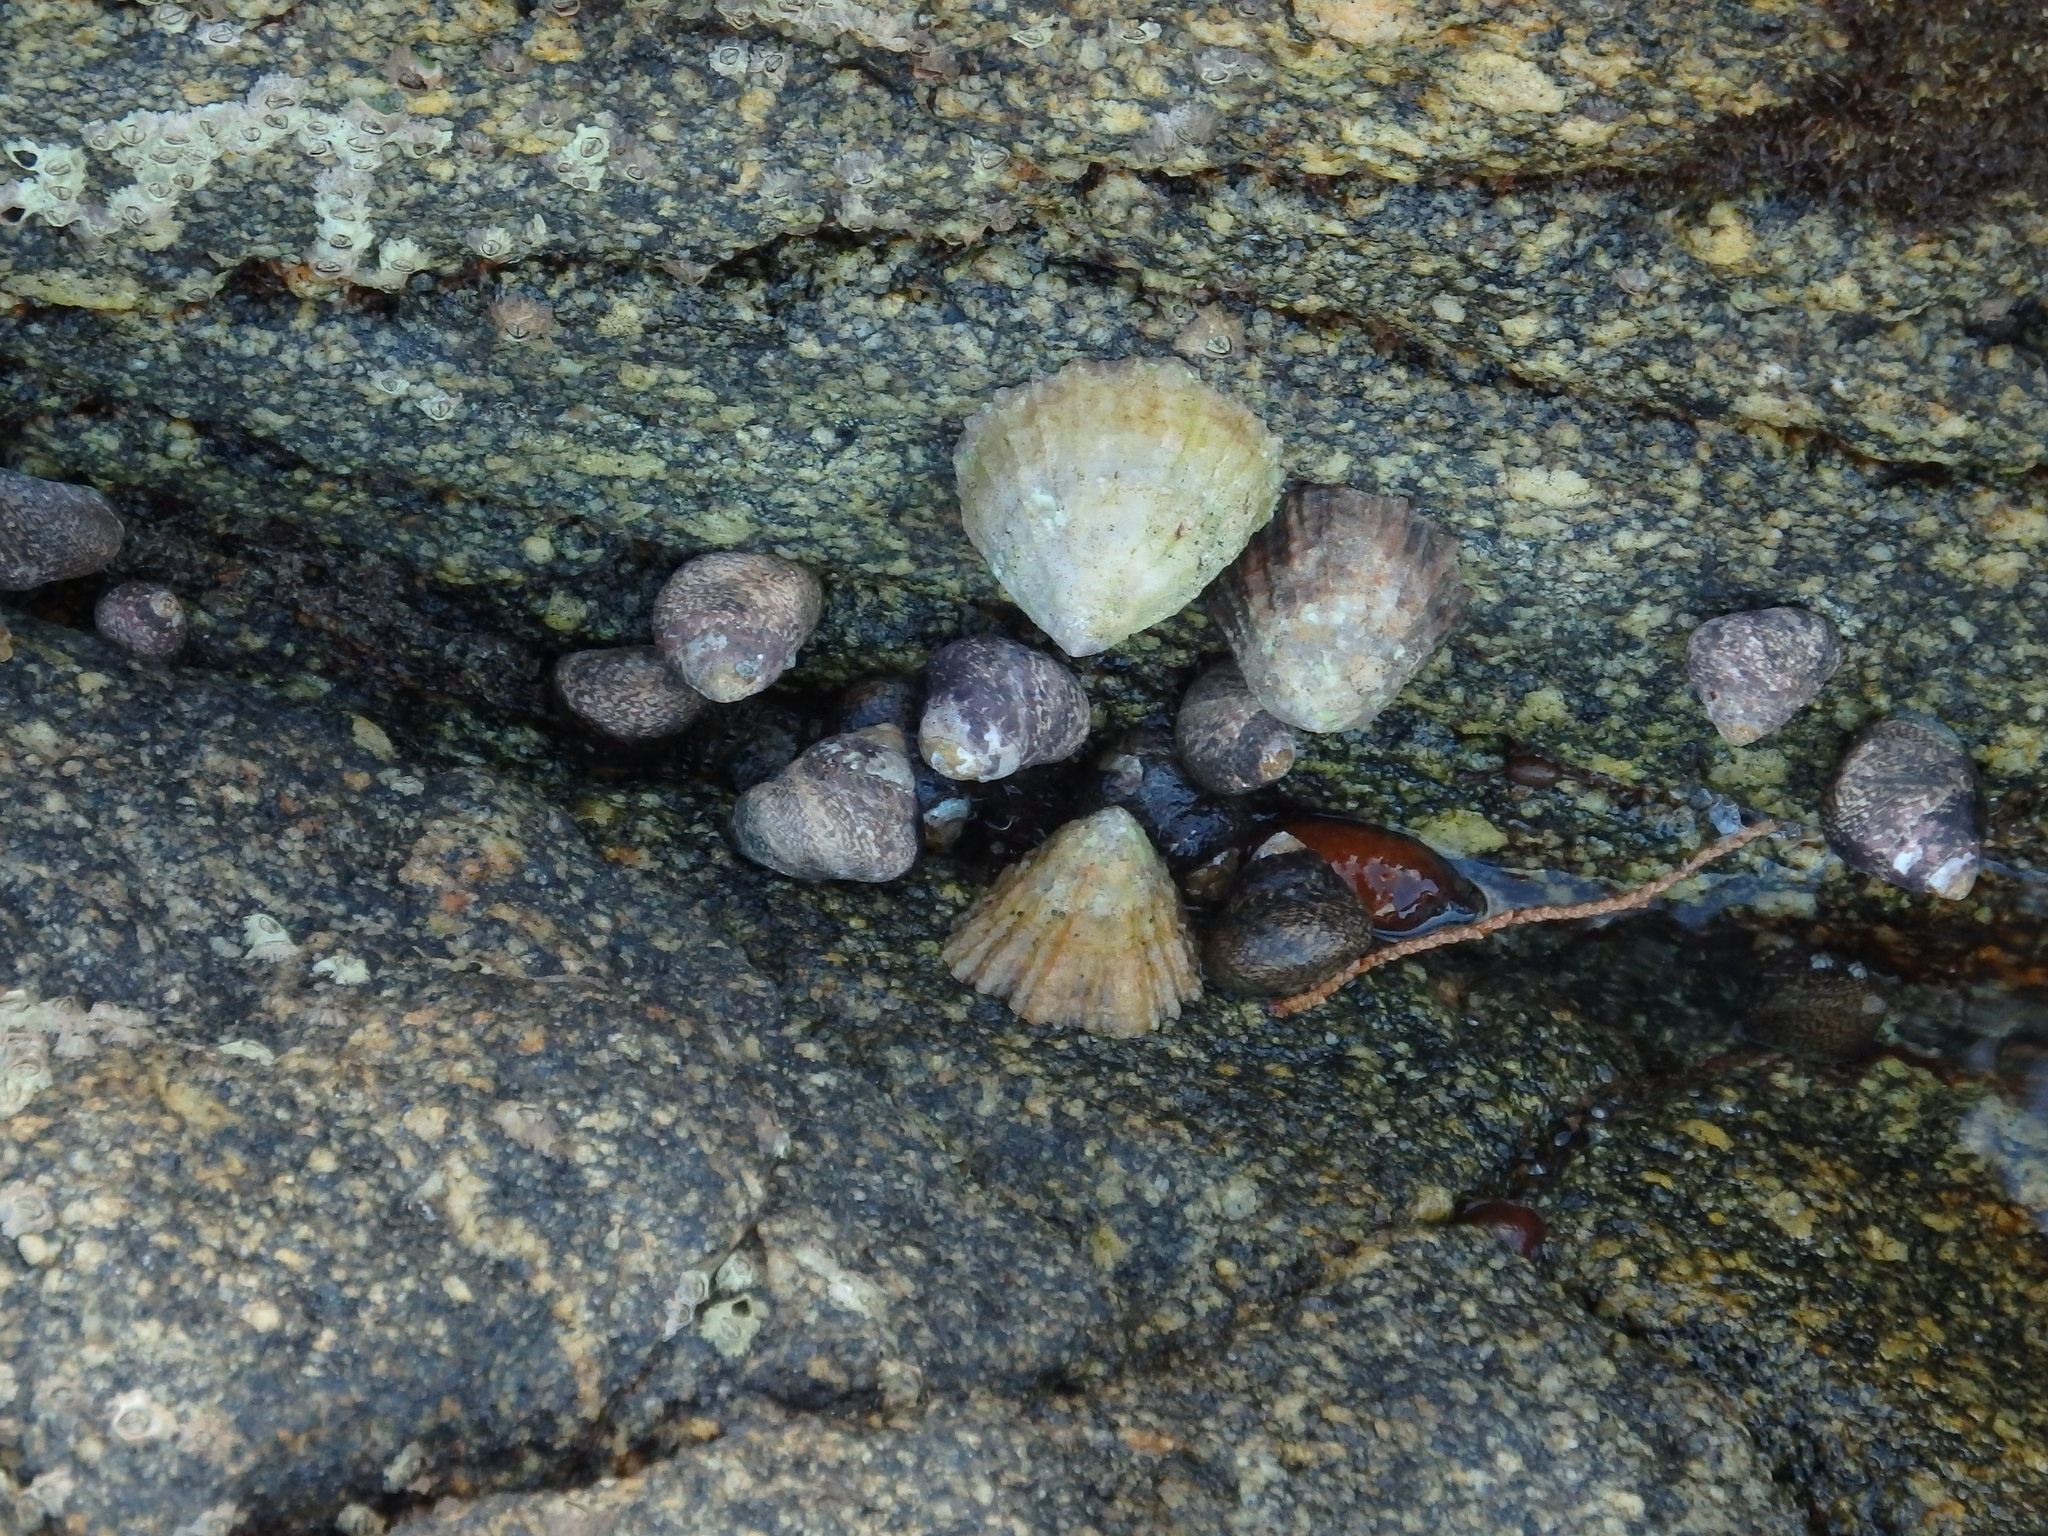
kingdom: Animalia
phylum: Mollusca
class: Gastropoda
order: Trochida
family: Trochidae
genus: Phorcus
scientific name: Phorcus lineatus
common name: Toothed top shell
